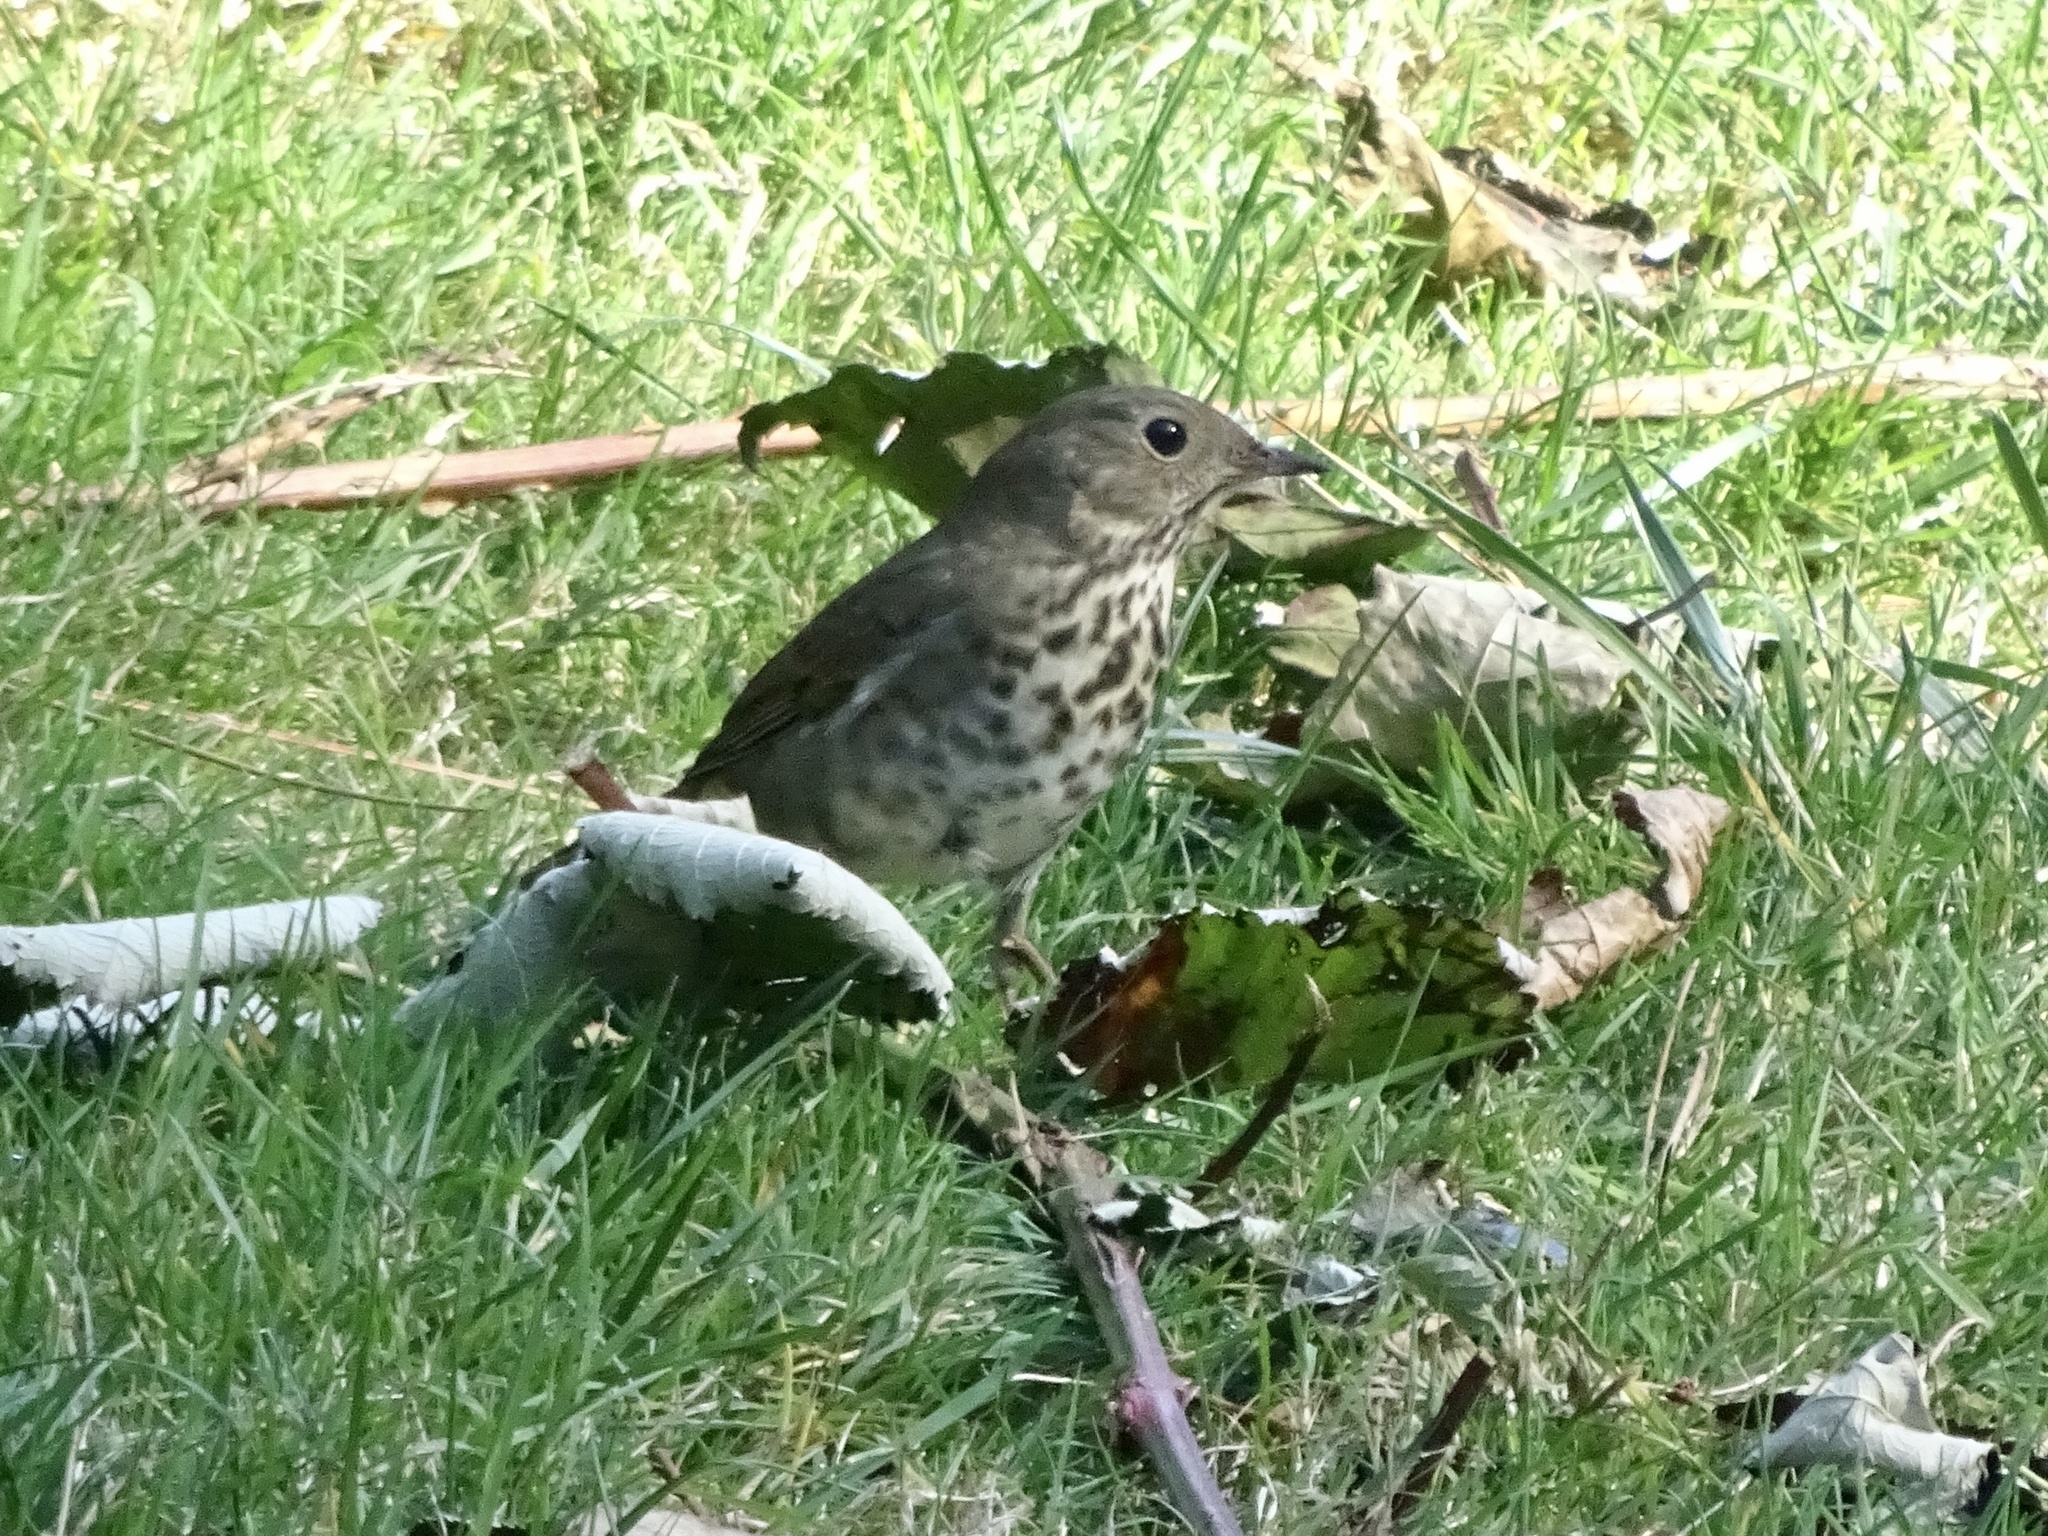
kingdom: Animalia
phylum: Chordata
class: Aves
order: Passeriformes
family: Turdidae
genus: Catharus
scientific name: Catharus guttatus
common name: Hermit thrush
